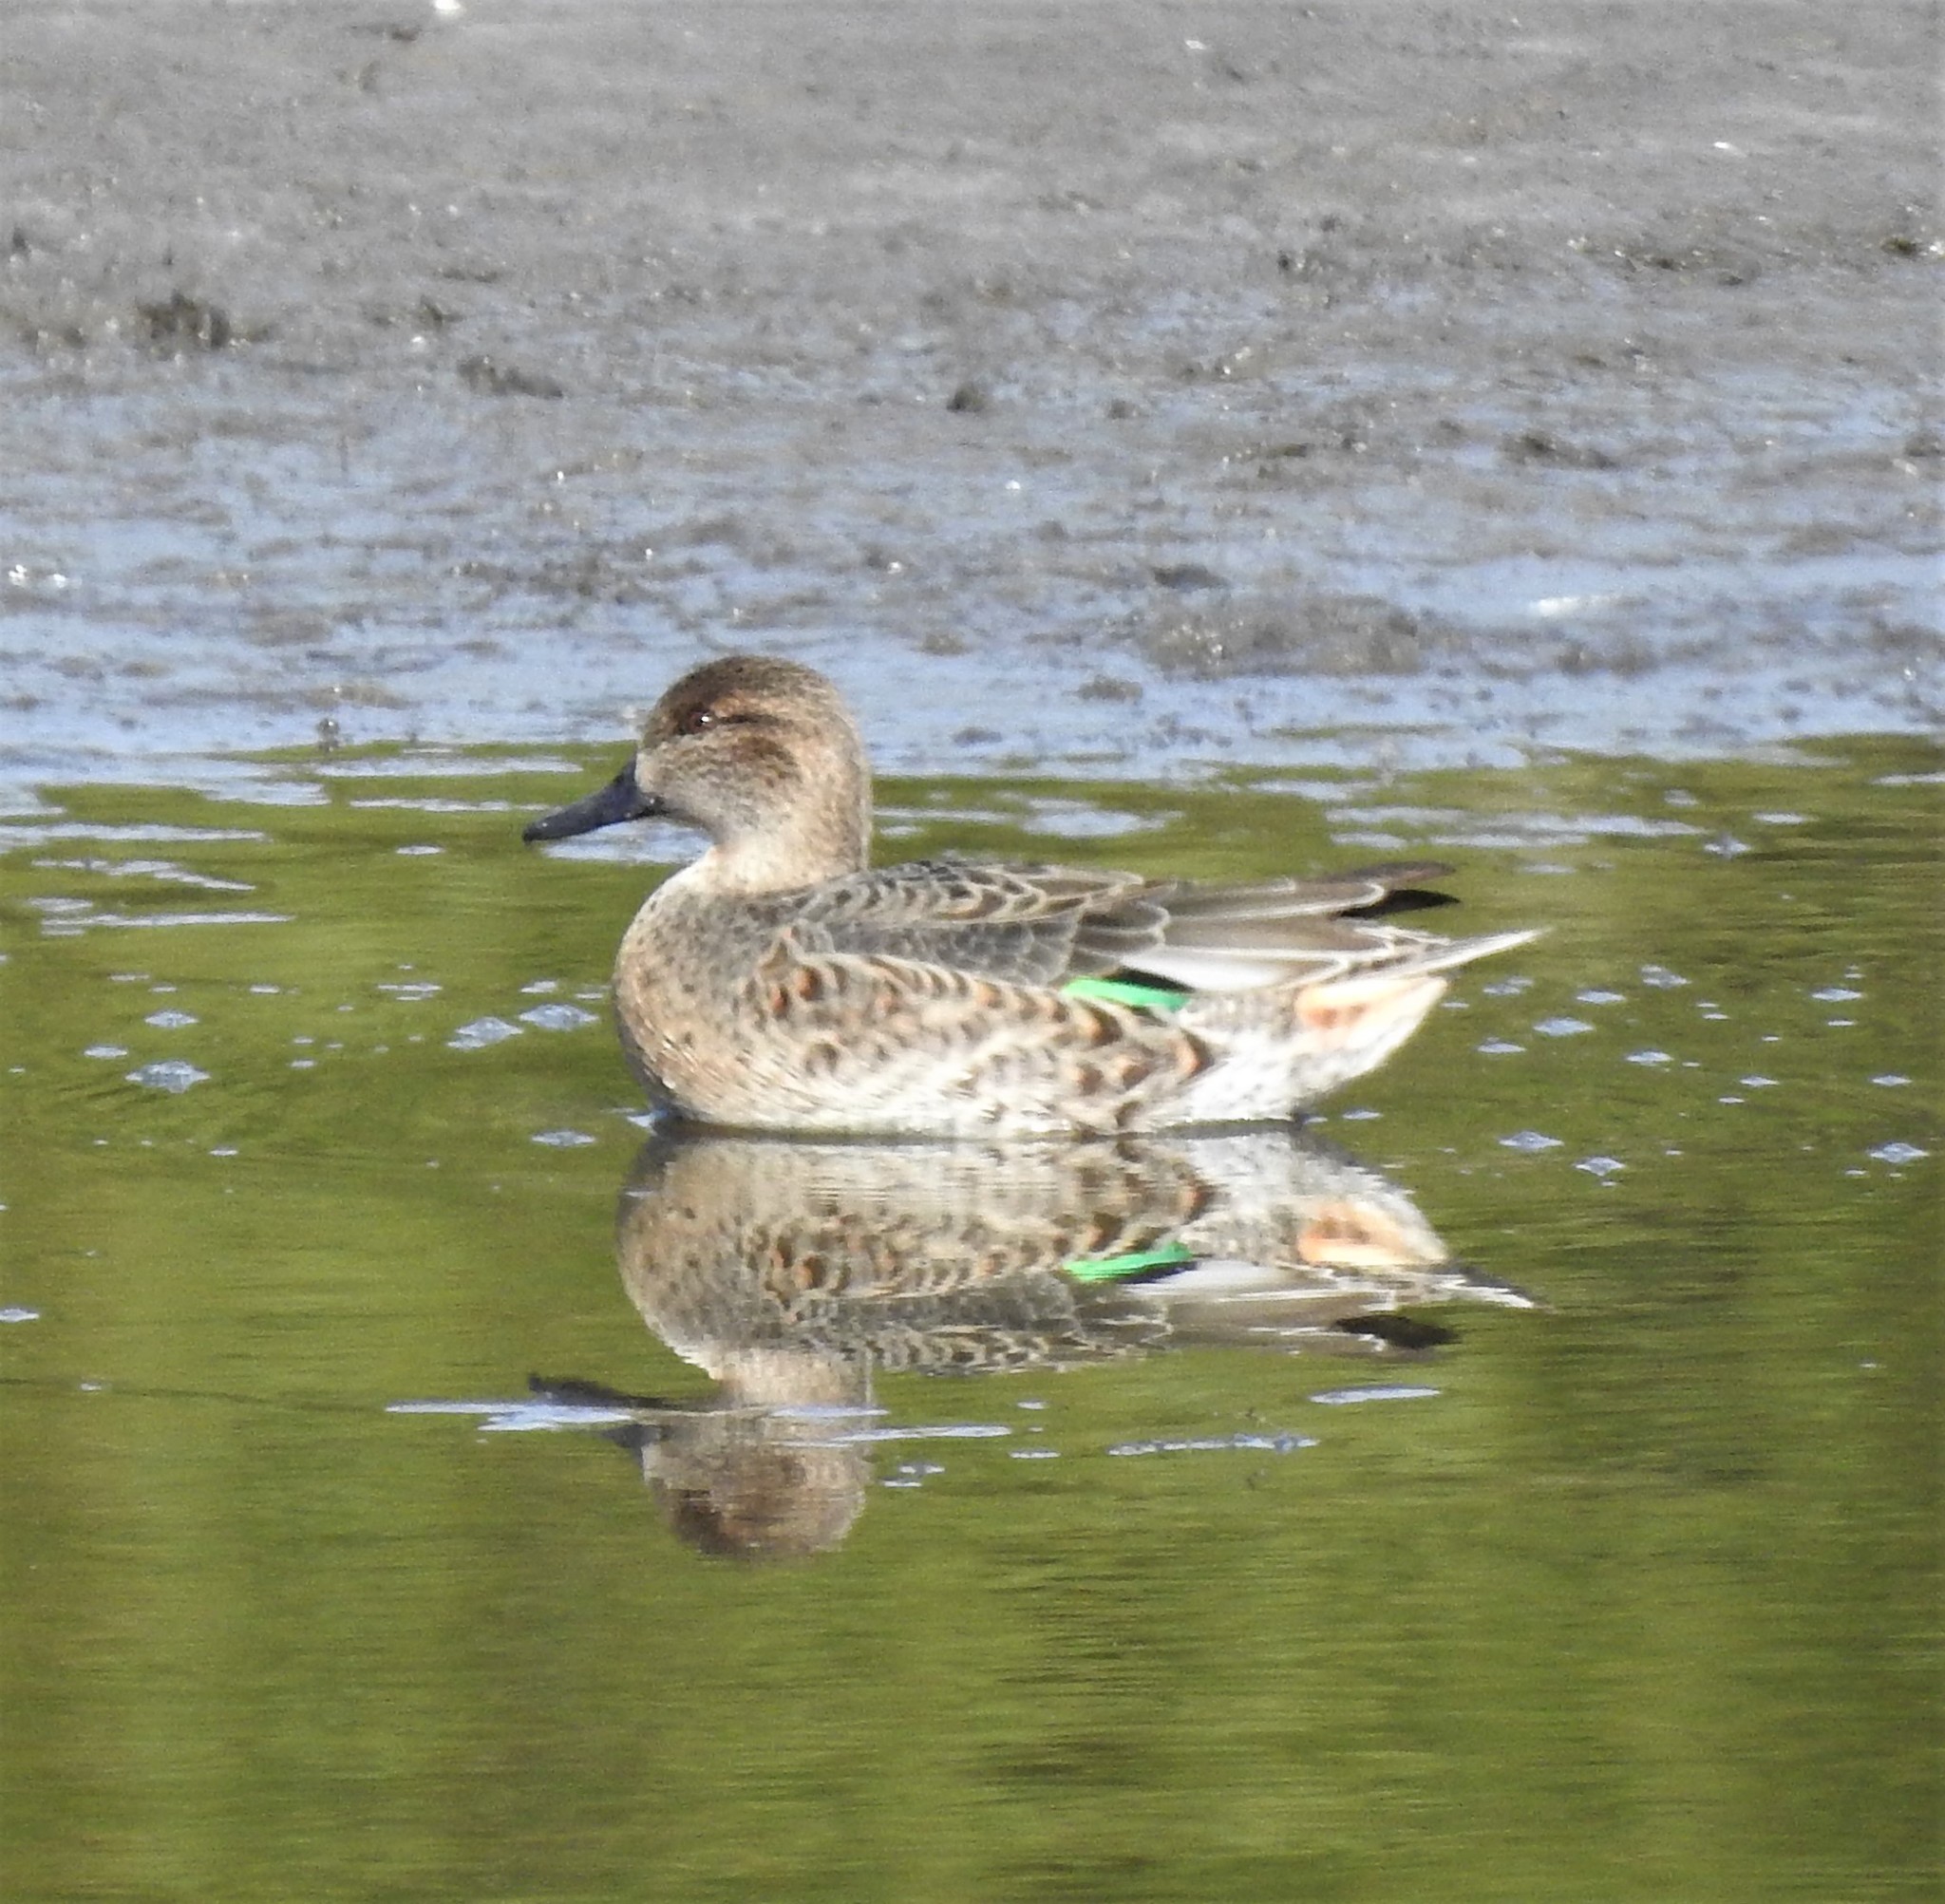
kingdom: Animalia
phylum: Chordata
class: Aves
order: Anseriformes
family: Anatidae
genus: Anas
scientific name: Anas crecca
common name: Eurasian teal
